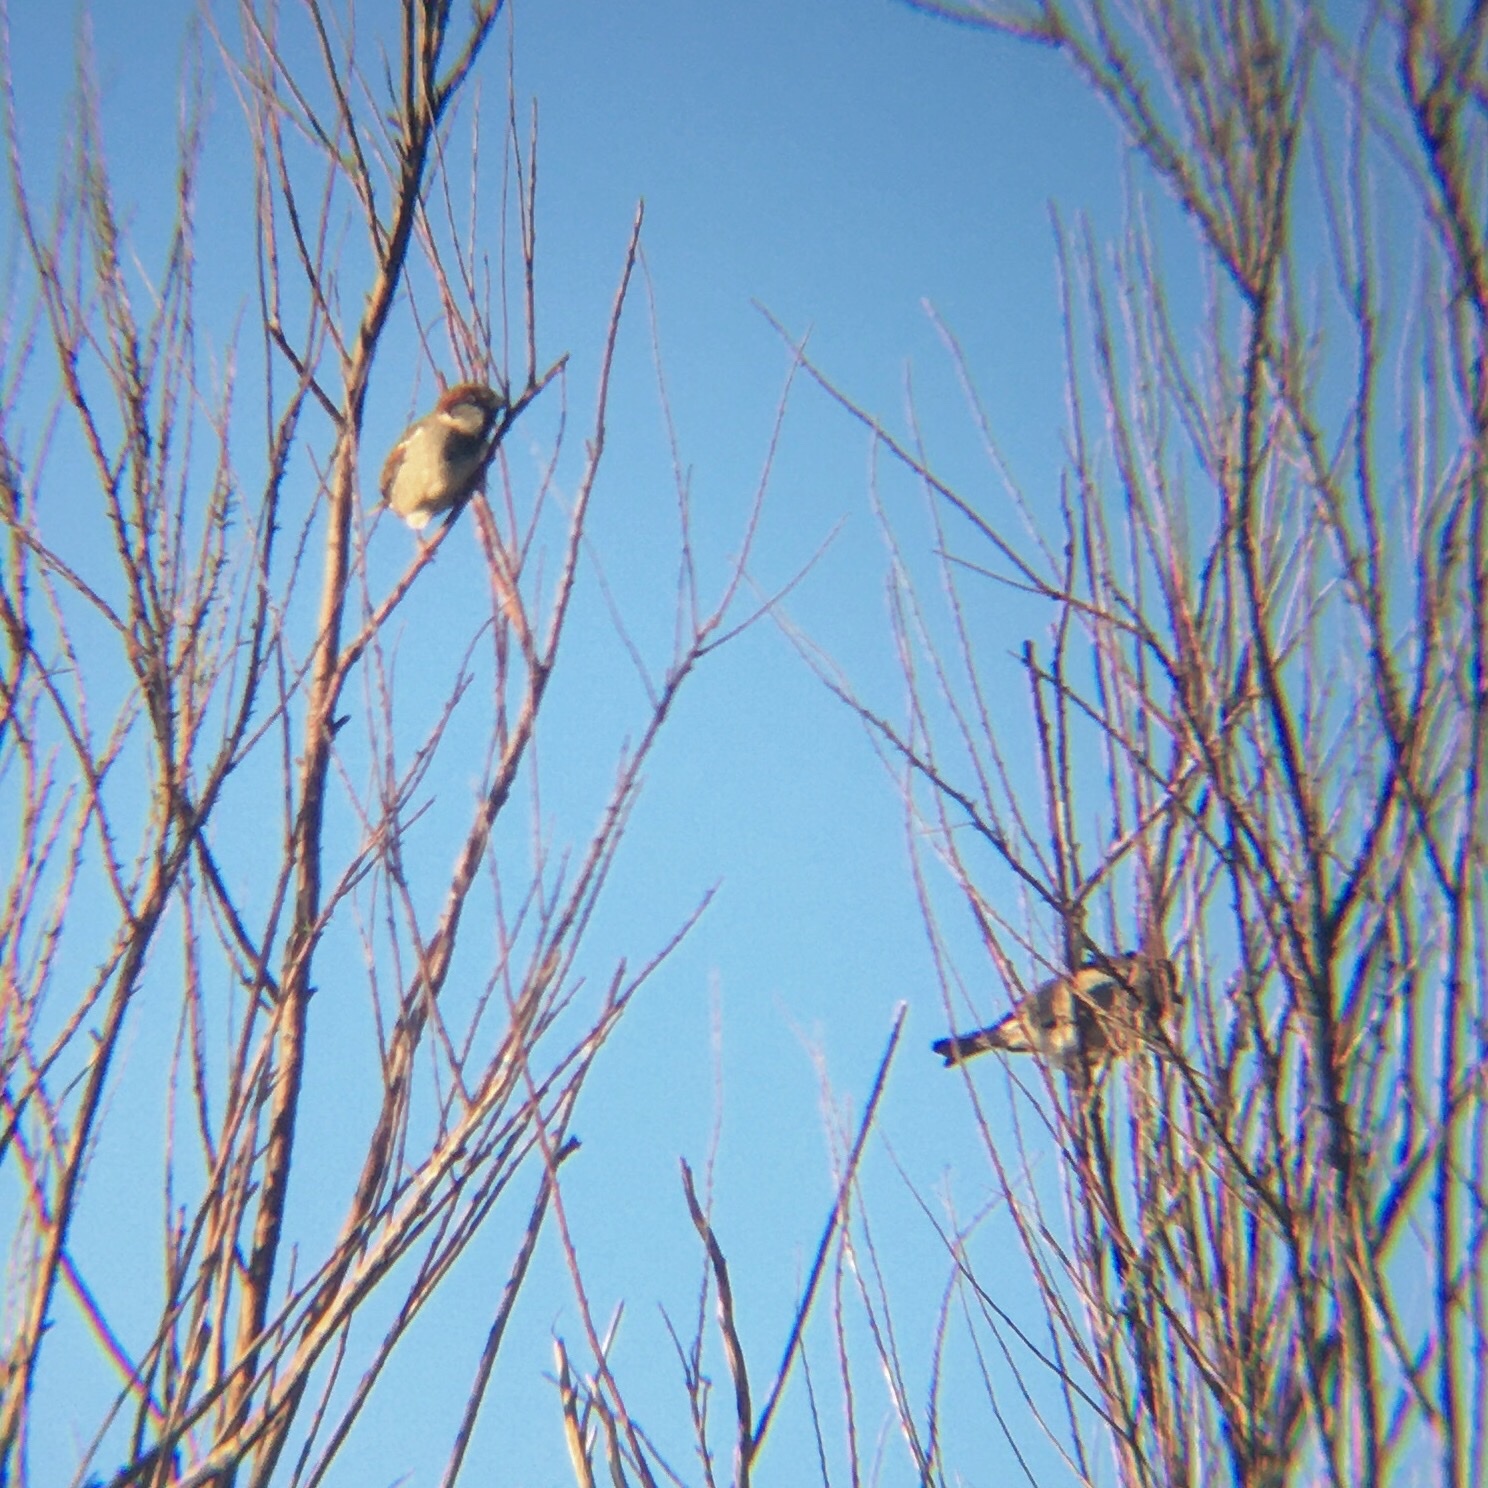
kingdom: Animalia
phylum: Chordata
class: Aves
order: Passeriformes
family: Passeridae
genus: Passer
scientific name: Passer domesticus
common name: House sparrow
